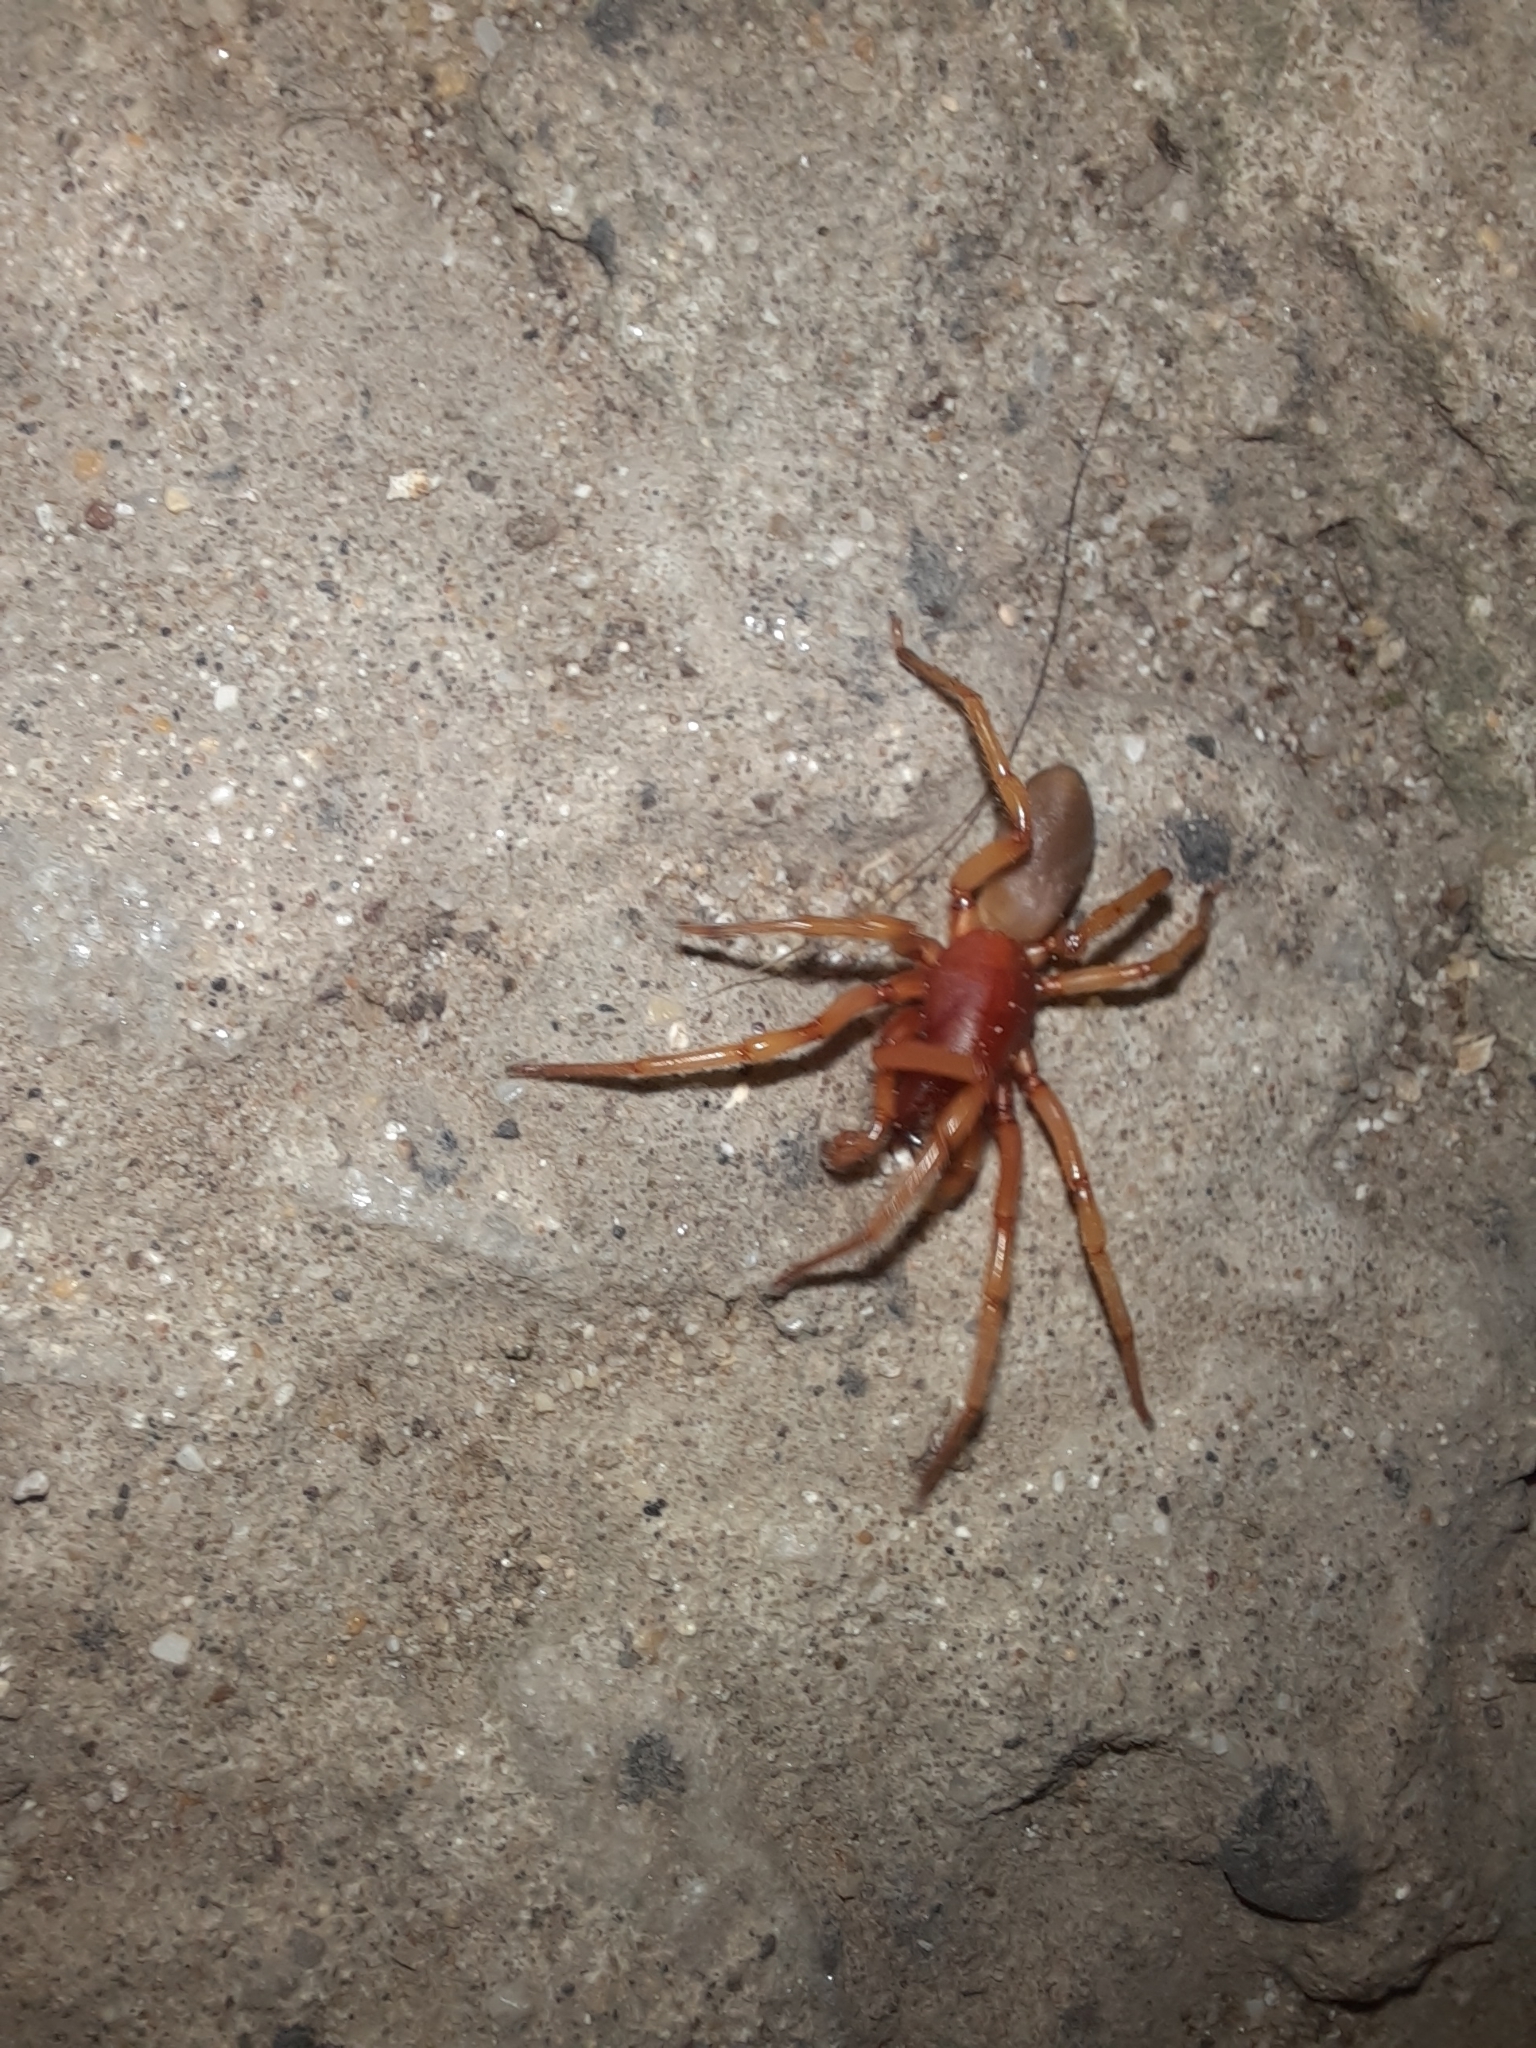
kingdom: Animalia
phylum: Arthropoda
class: Arachnida
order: Araneae
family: Dysderidae
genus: Dysdera
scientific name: Dysdera crocata
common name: Woodlouse spider
